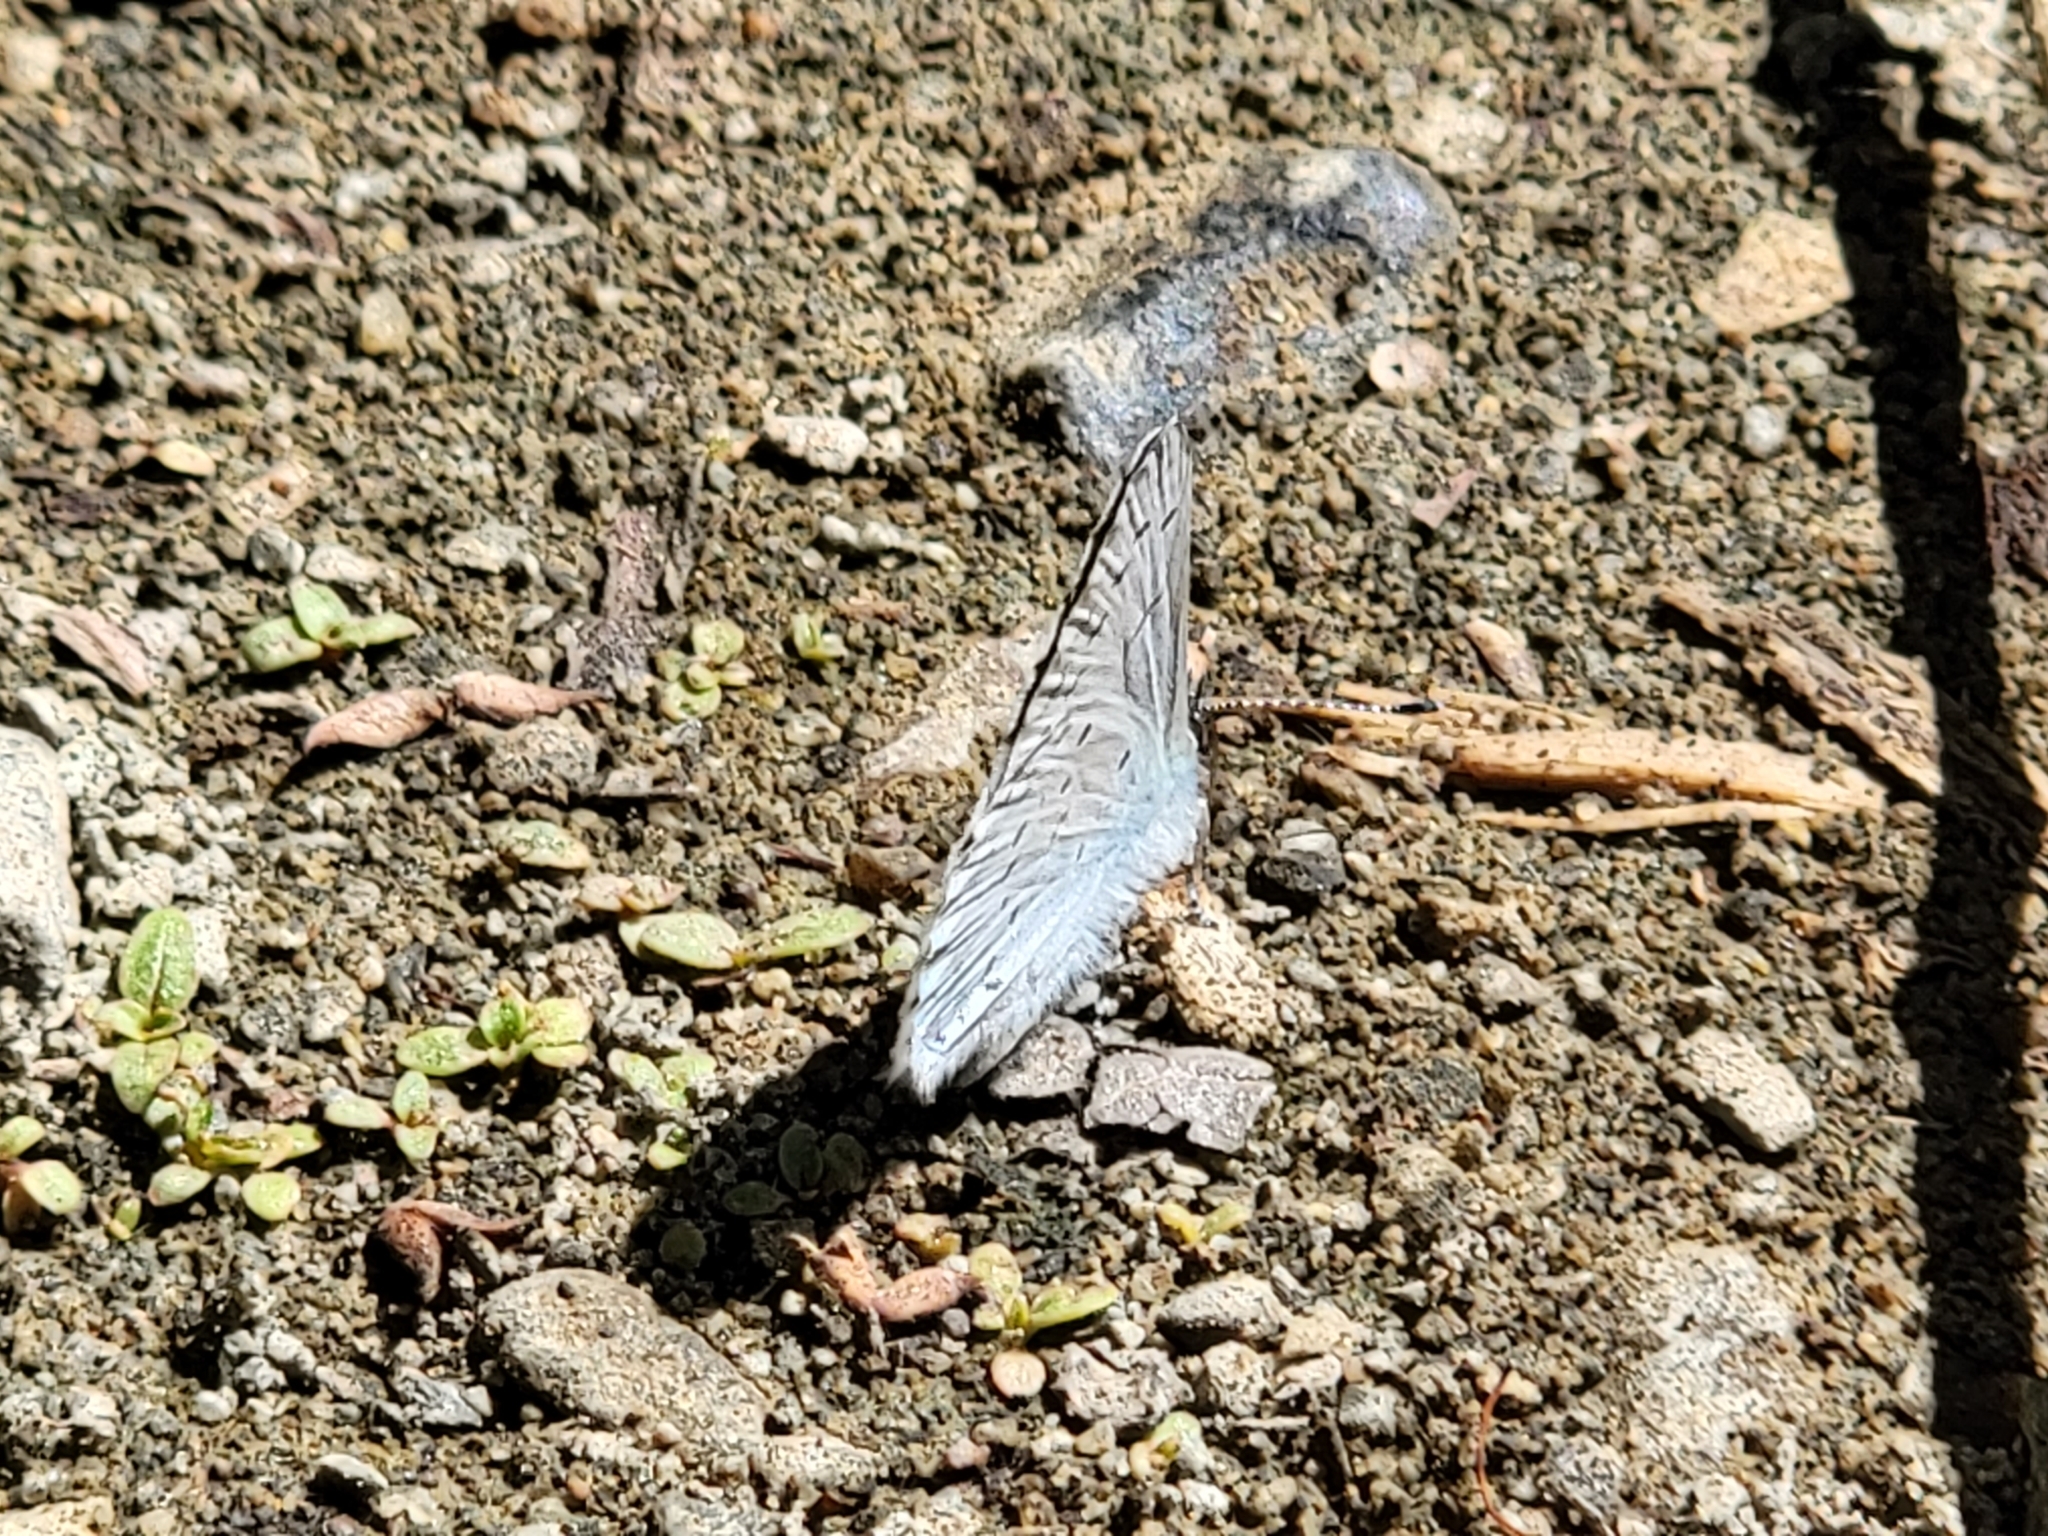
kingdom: Animalia
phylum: Arthropoda
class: Insecta
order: Lepidoptera
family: Lycaenidae
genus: Celastrina
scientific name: Celastrina ladon
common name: Spring azure
